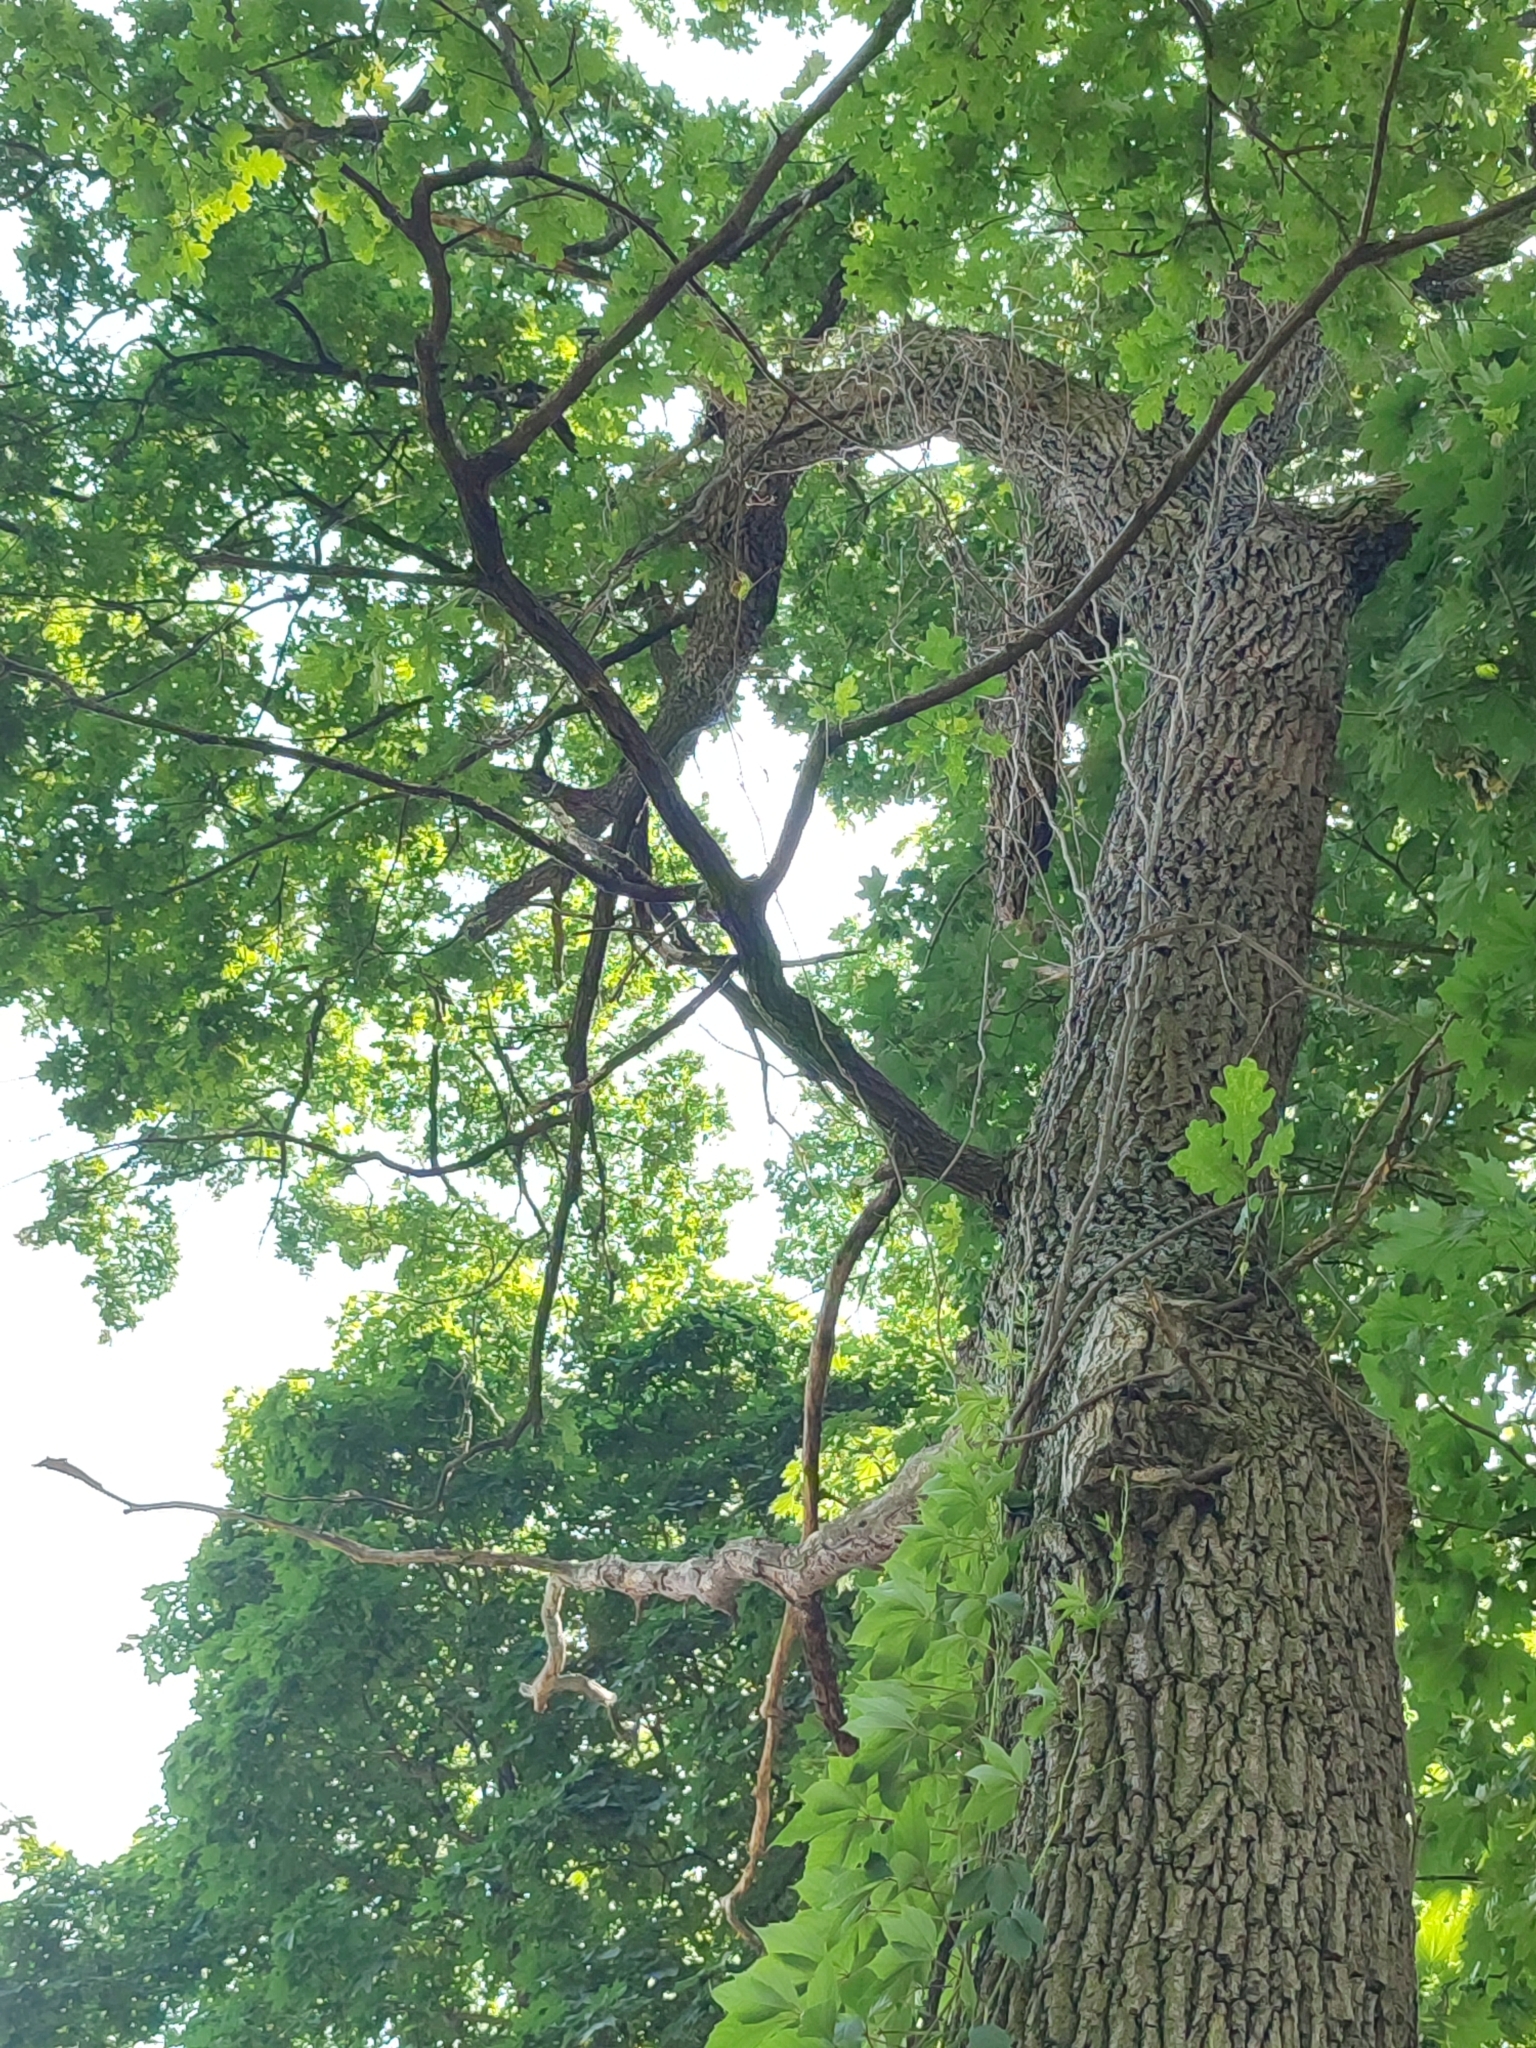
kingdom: Plantae
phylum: Tracheophyta
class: Magnoliopsida
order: Fagales
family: Fagaceae
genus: Quercus
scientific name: Quercus robur
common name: Pedunculate oak
